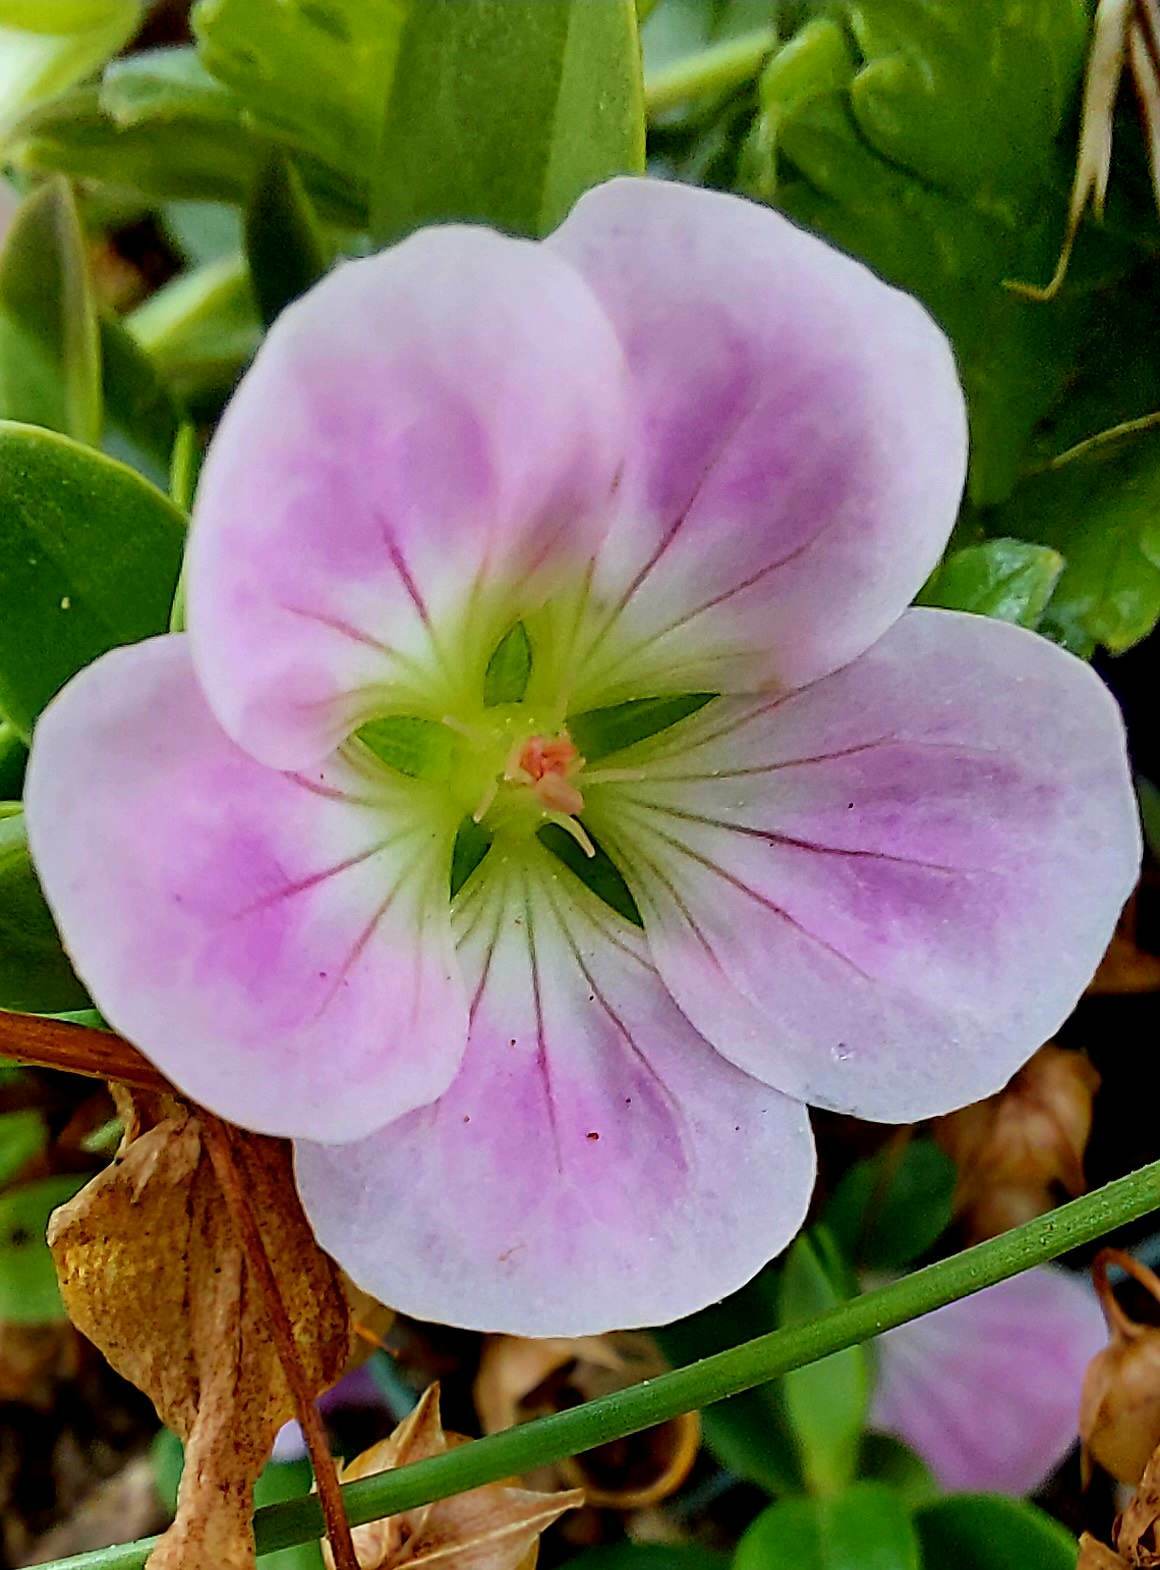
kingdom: Plantae
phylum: Tracheophyta
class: Magnoliopsida
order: Geraniales
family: Geraniaceae
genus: Geranium
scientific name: Geranium traversii
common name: Cranesbill
